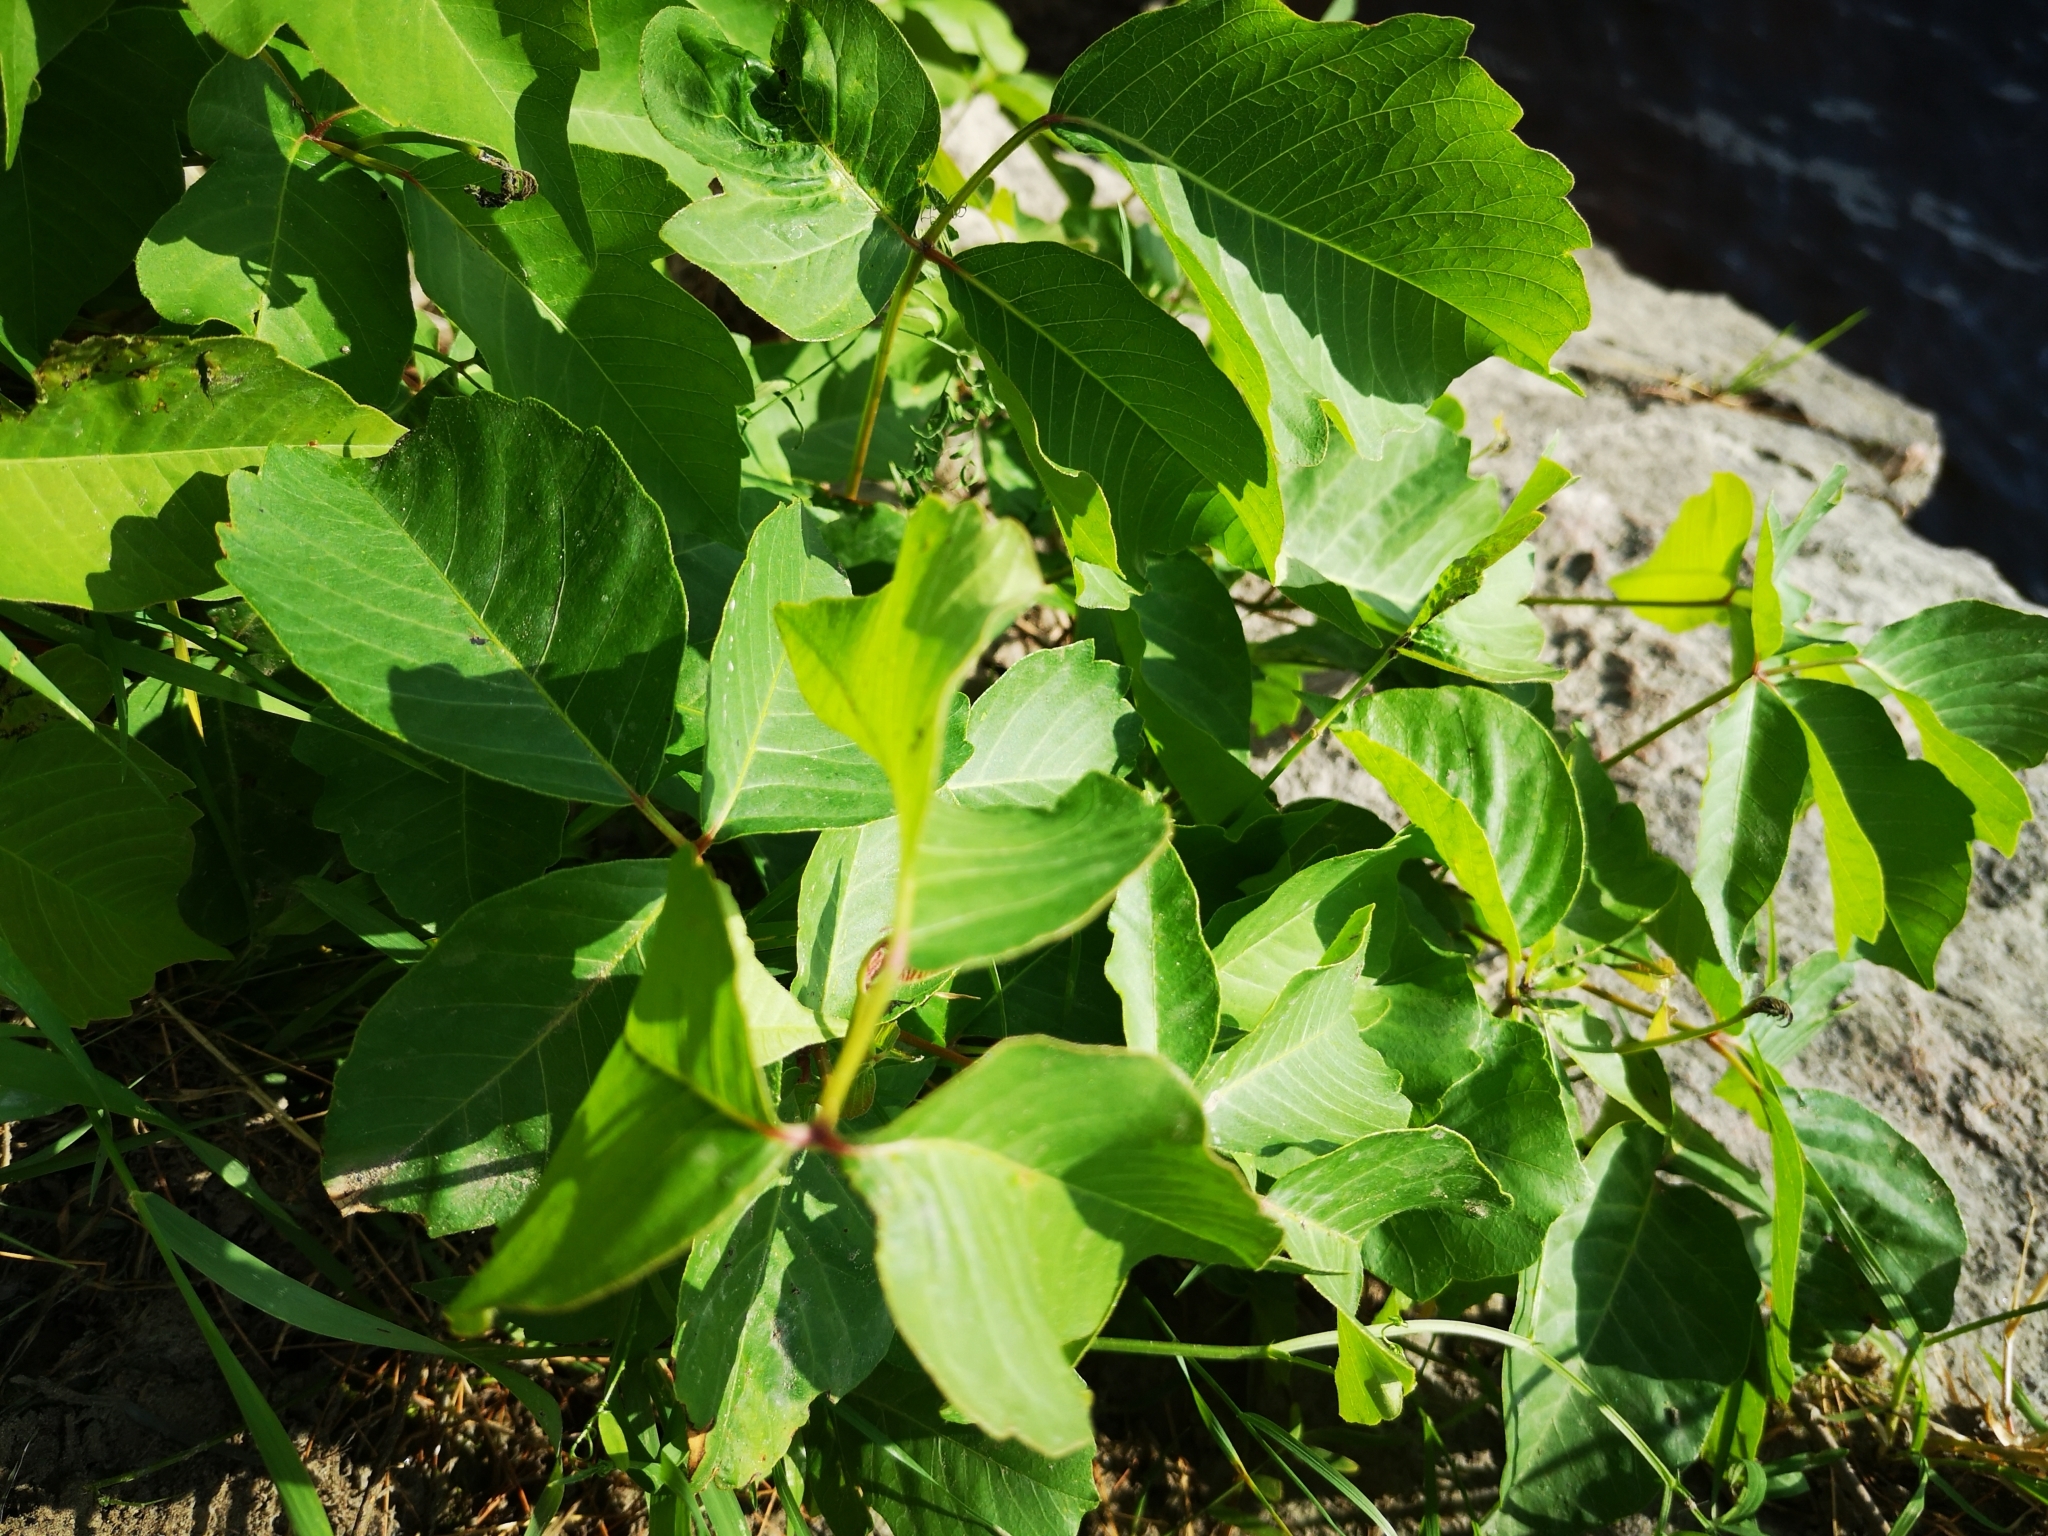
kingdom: Plantae
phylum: Tracheophyta
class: Magnoliopsida
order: Sapindales
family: Anacardiaceae
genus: Toxicodendron
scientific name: Toxicodendron rydbergii
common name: Rydberg's poison-ivy
